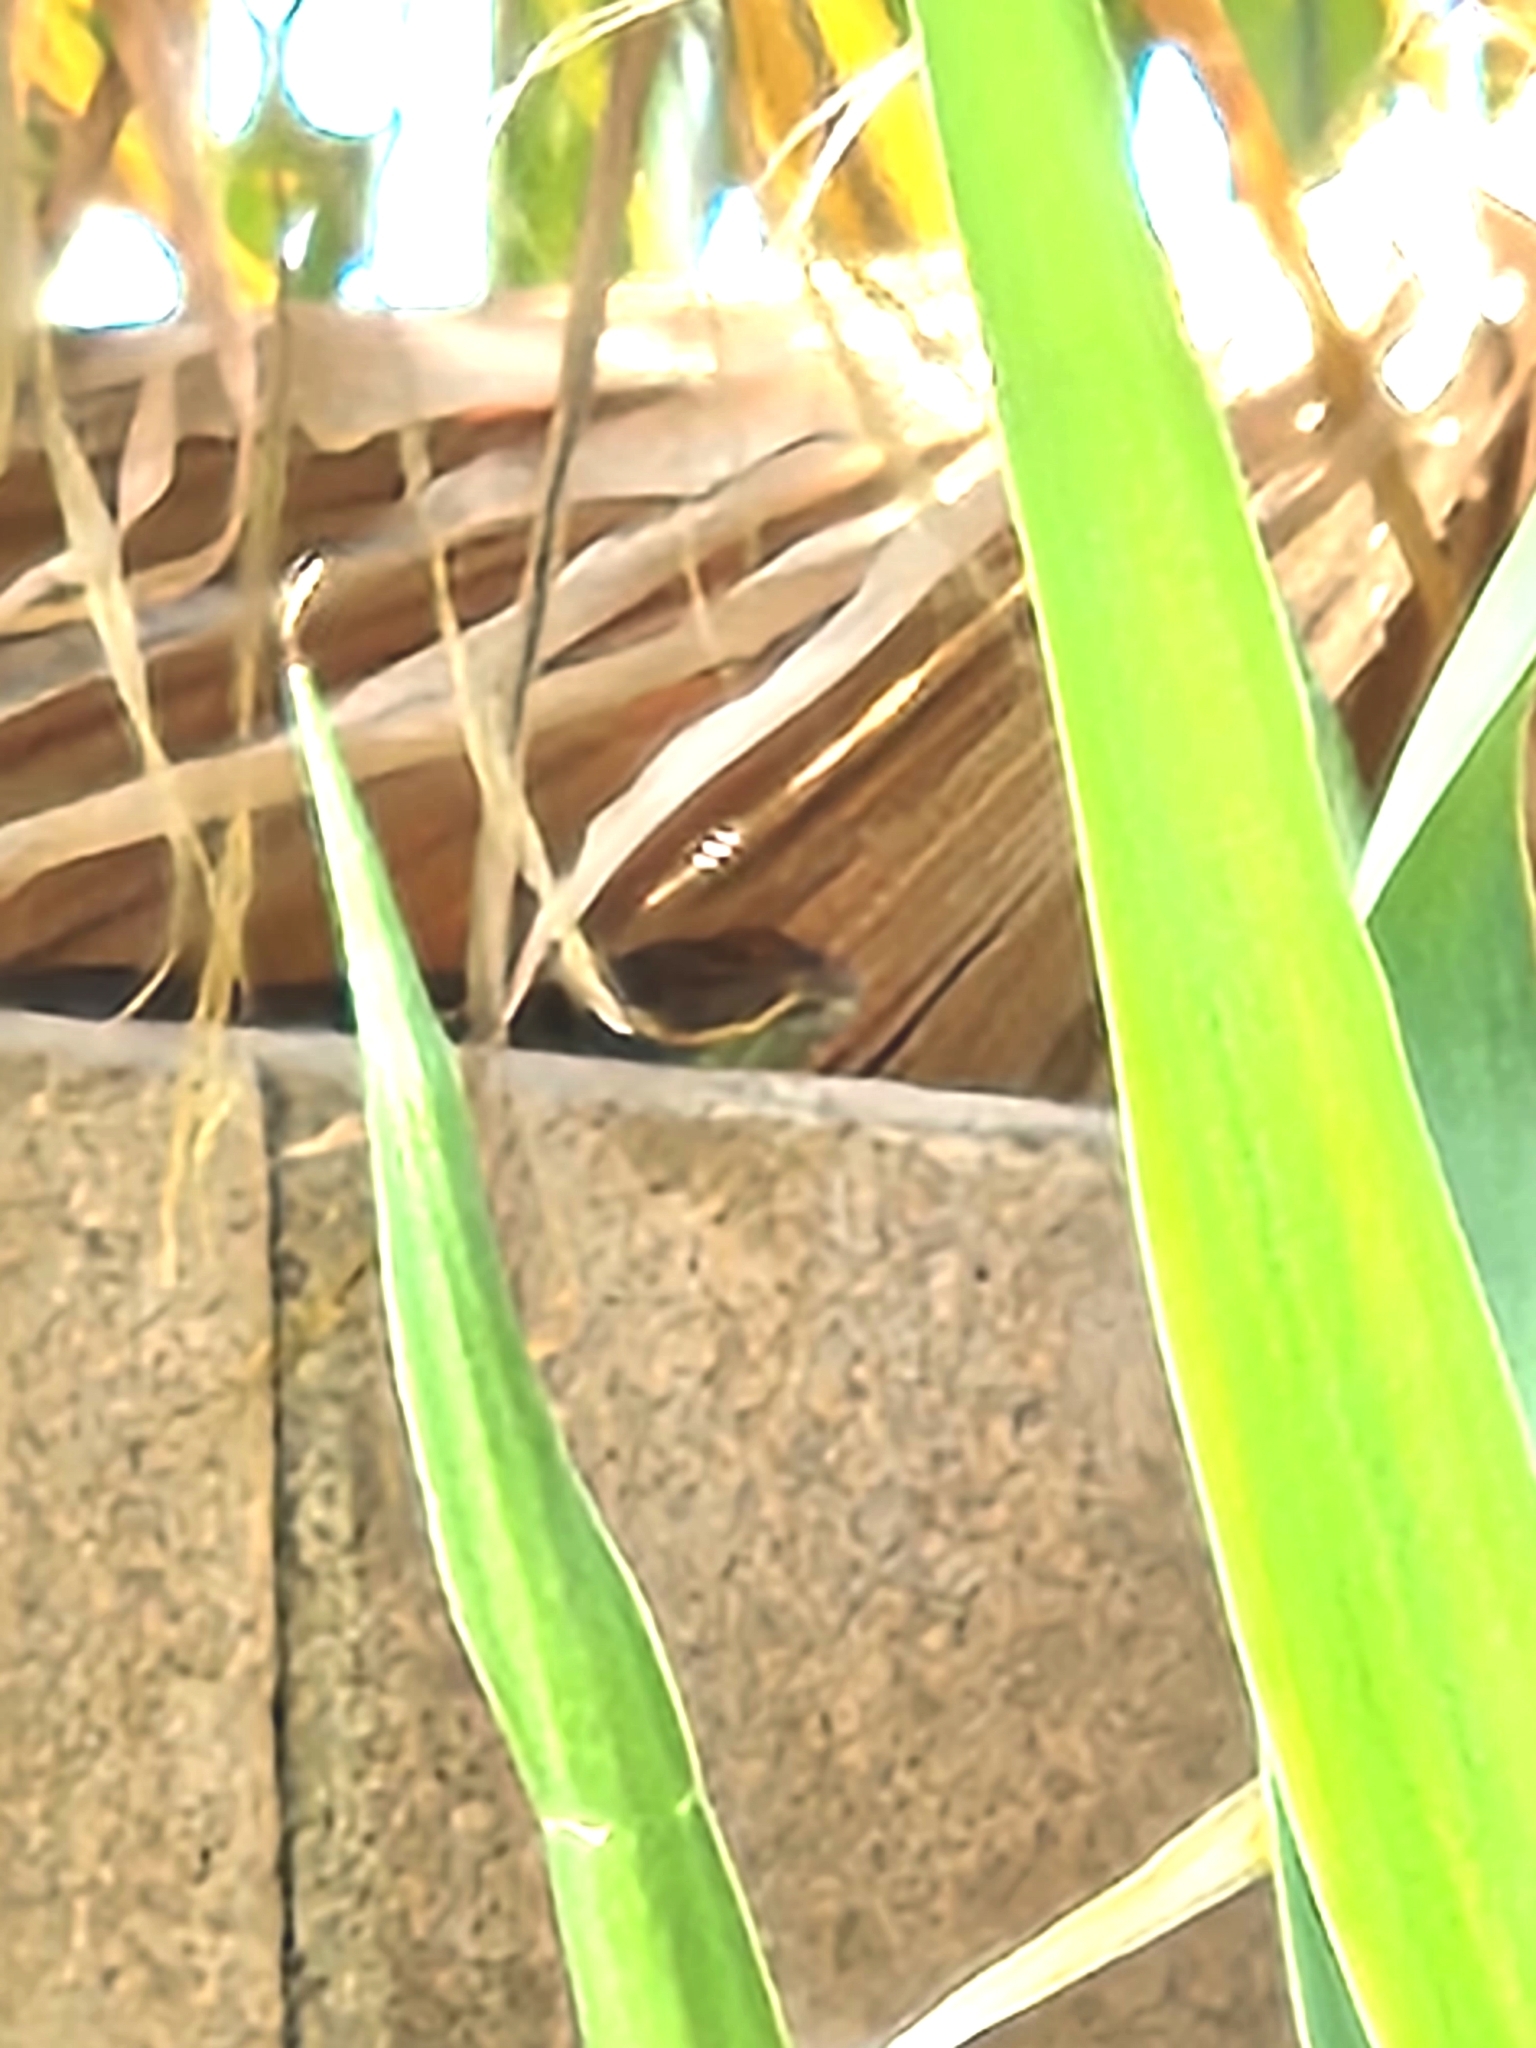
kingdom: Animalia
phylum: Chordata
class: Squamata
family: Phrynosomatidae
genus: Sceloporus
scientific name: Sceloporus magister
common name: Desert spiny lizard
